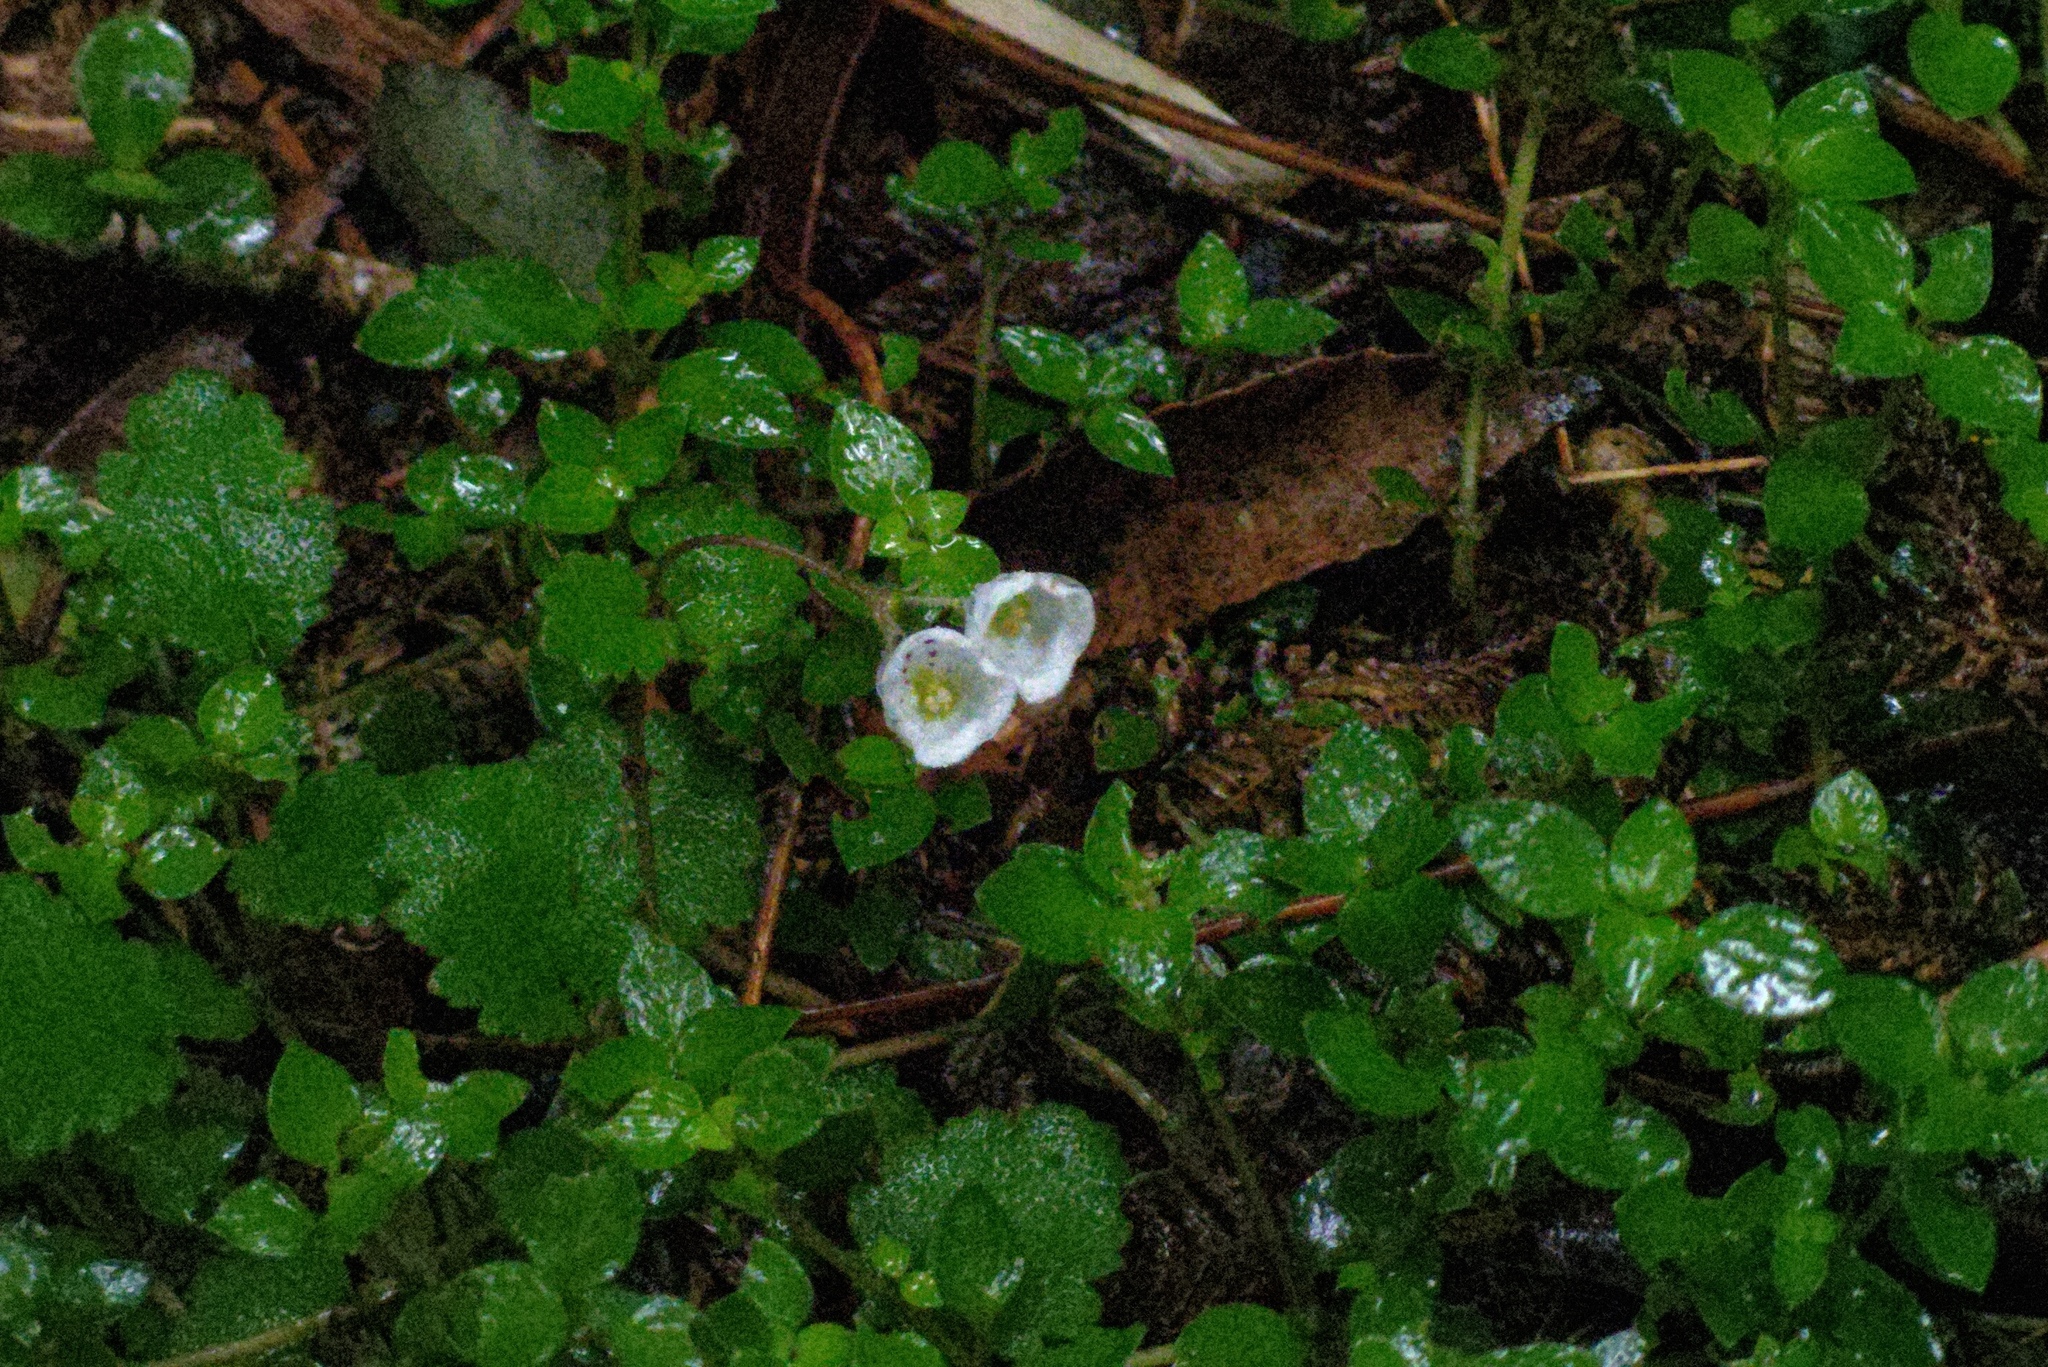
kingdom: Plantae
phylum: Tracheophyta
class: Magnoliopsida
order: Lamiales
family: Calceolariaceae
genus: Jovellana
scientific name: Jovellana repens
